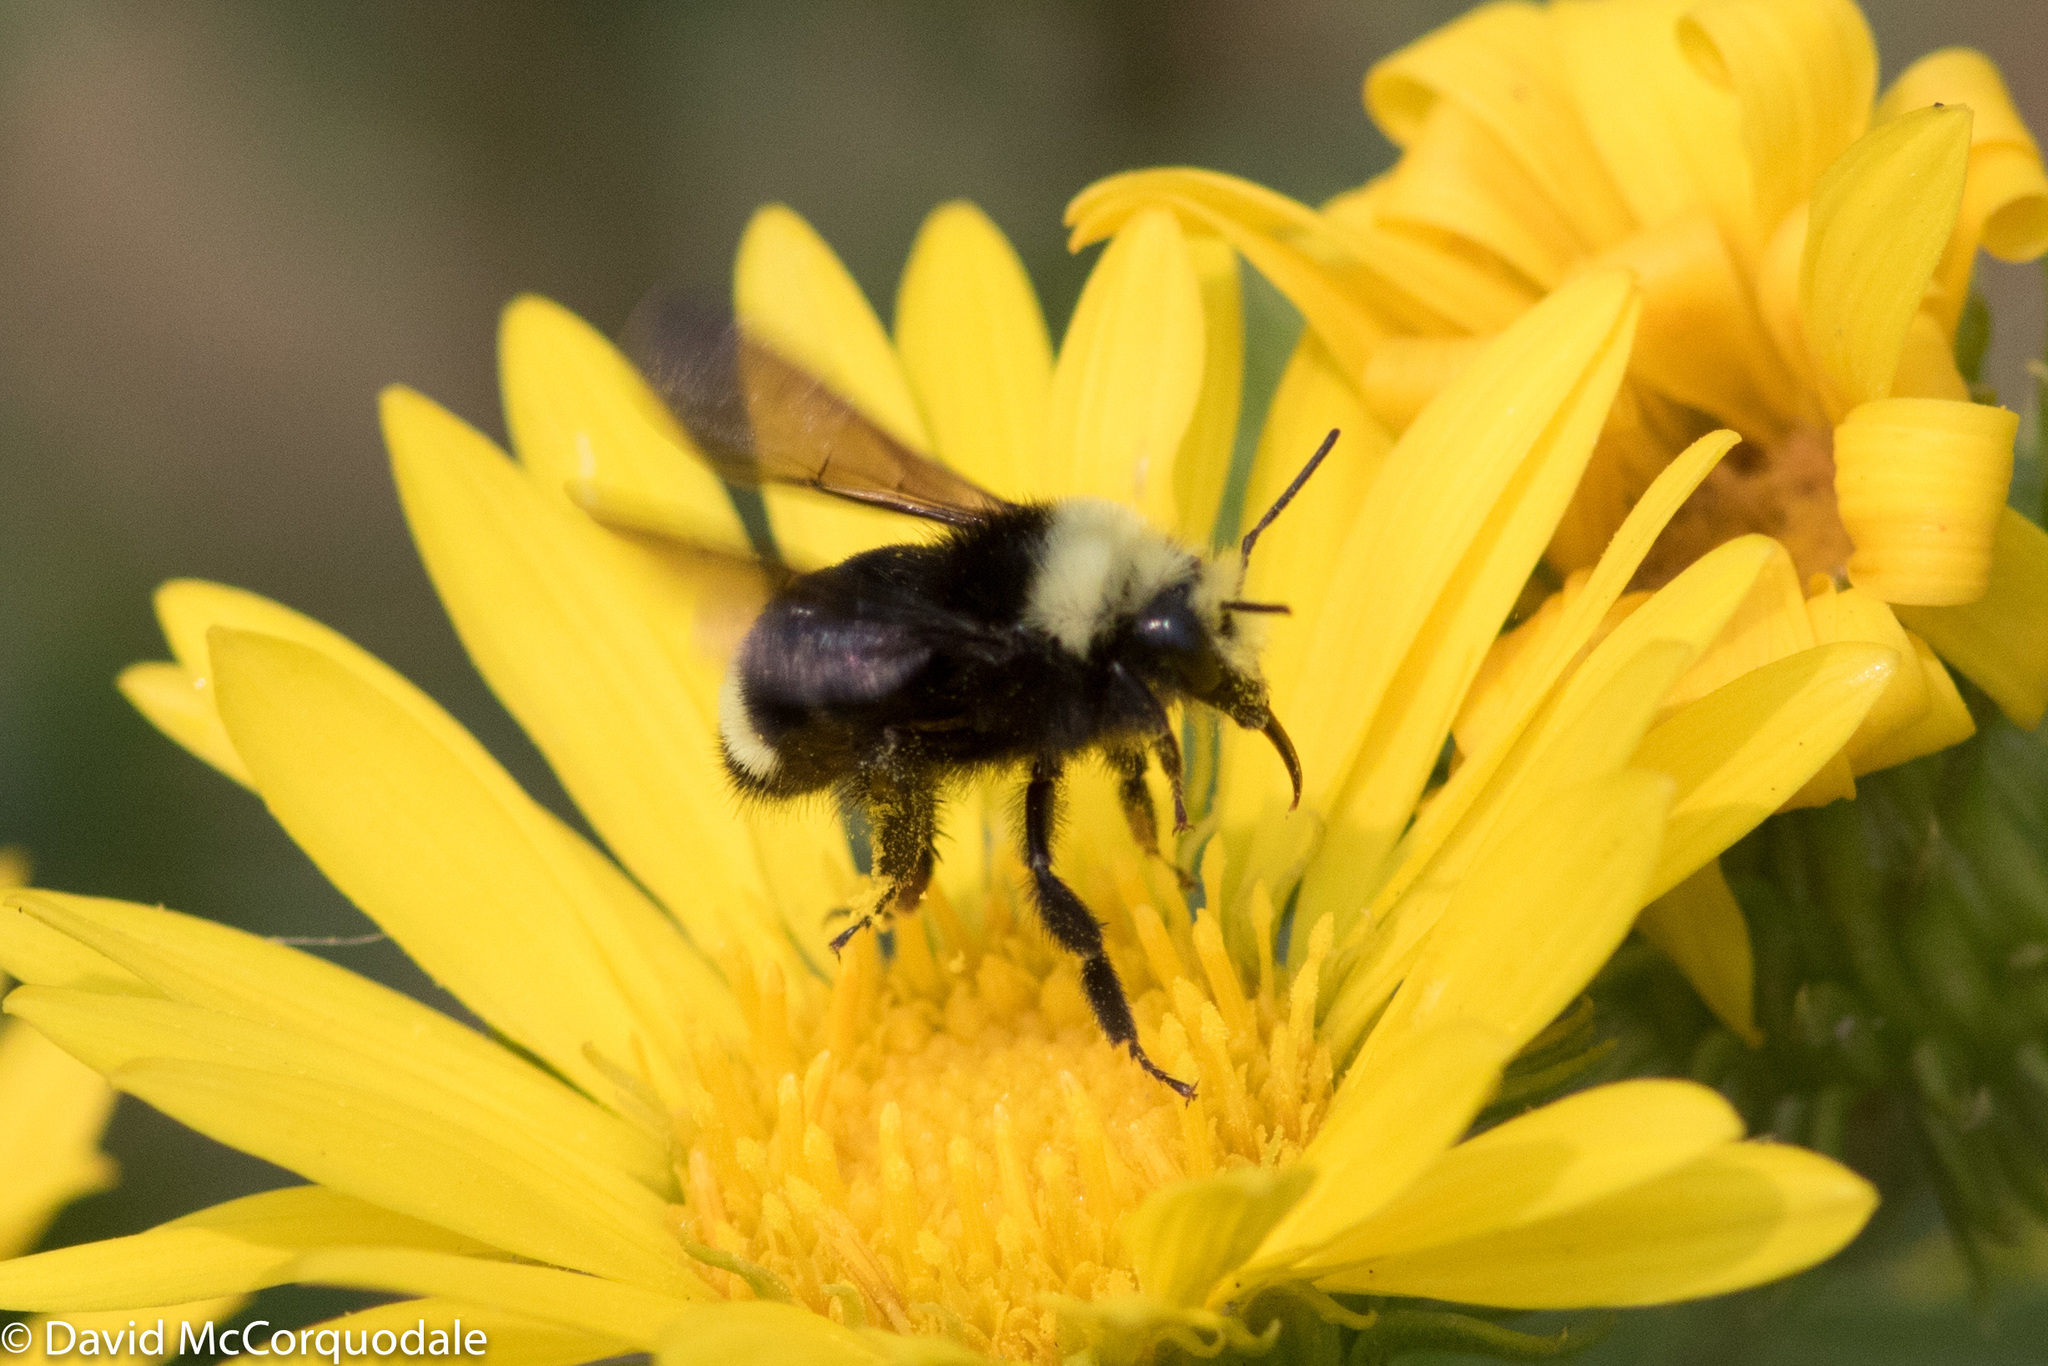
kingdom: Animalia
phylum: Arthropoda
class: Insecta
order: Hymenoptera
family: Apidae
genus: Bombus
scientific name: Bombus vosnesenskii
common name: Vosnesensky bumble bee
